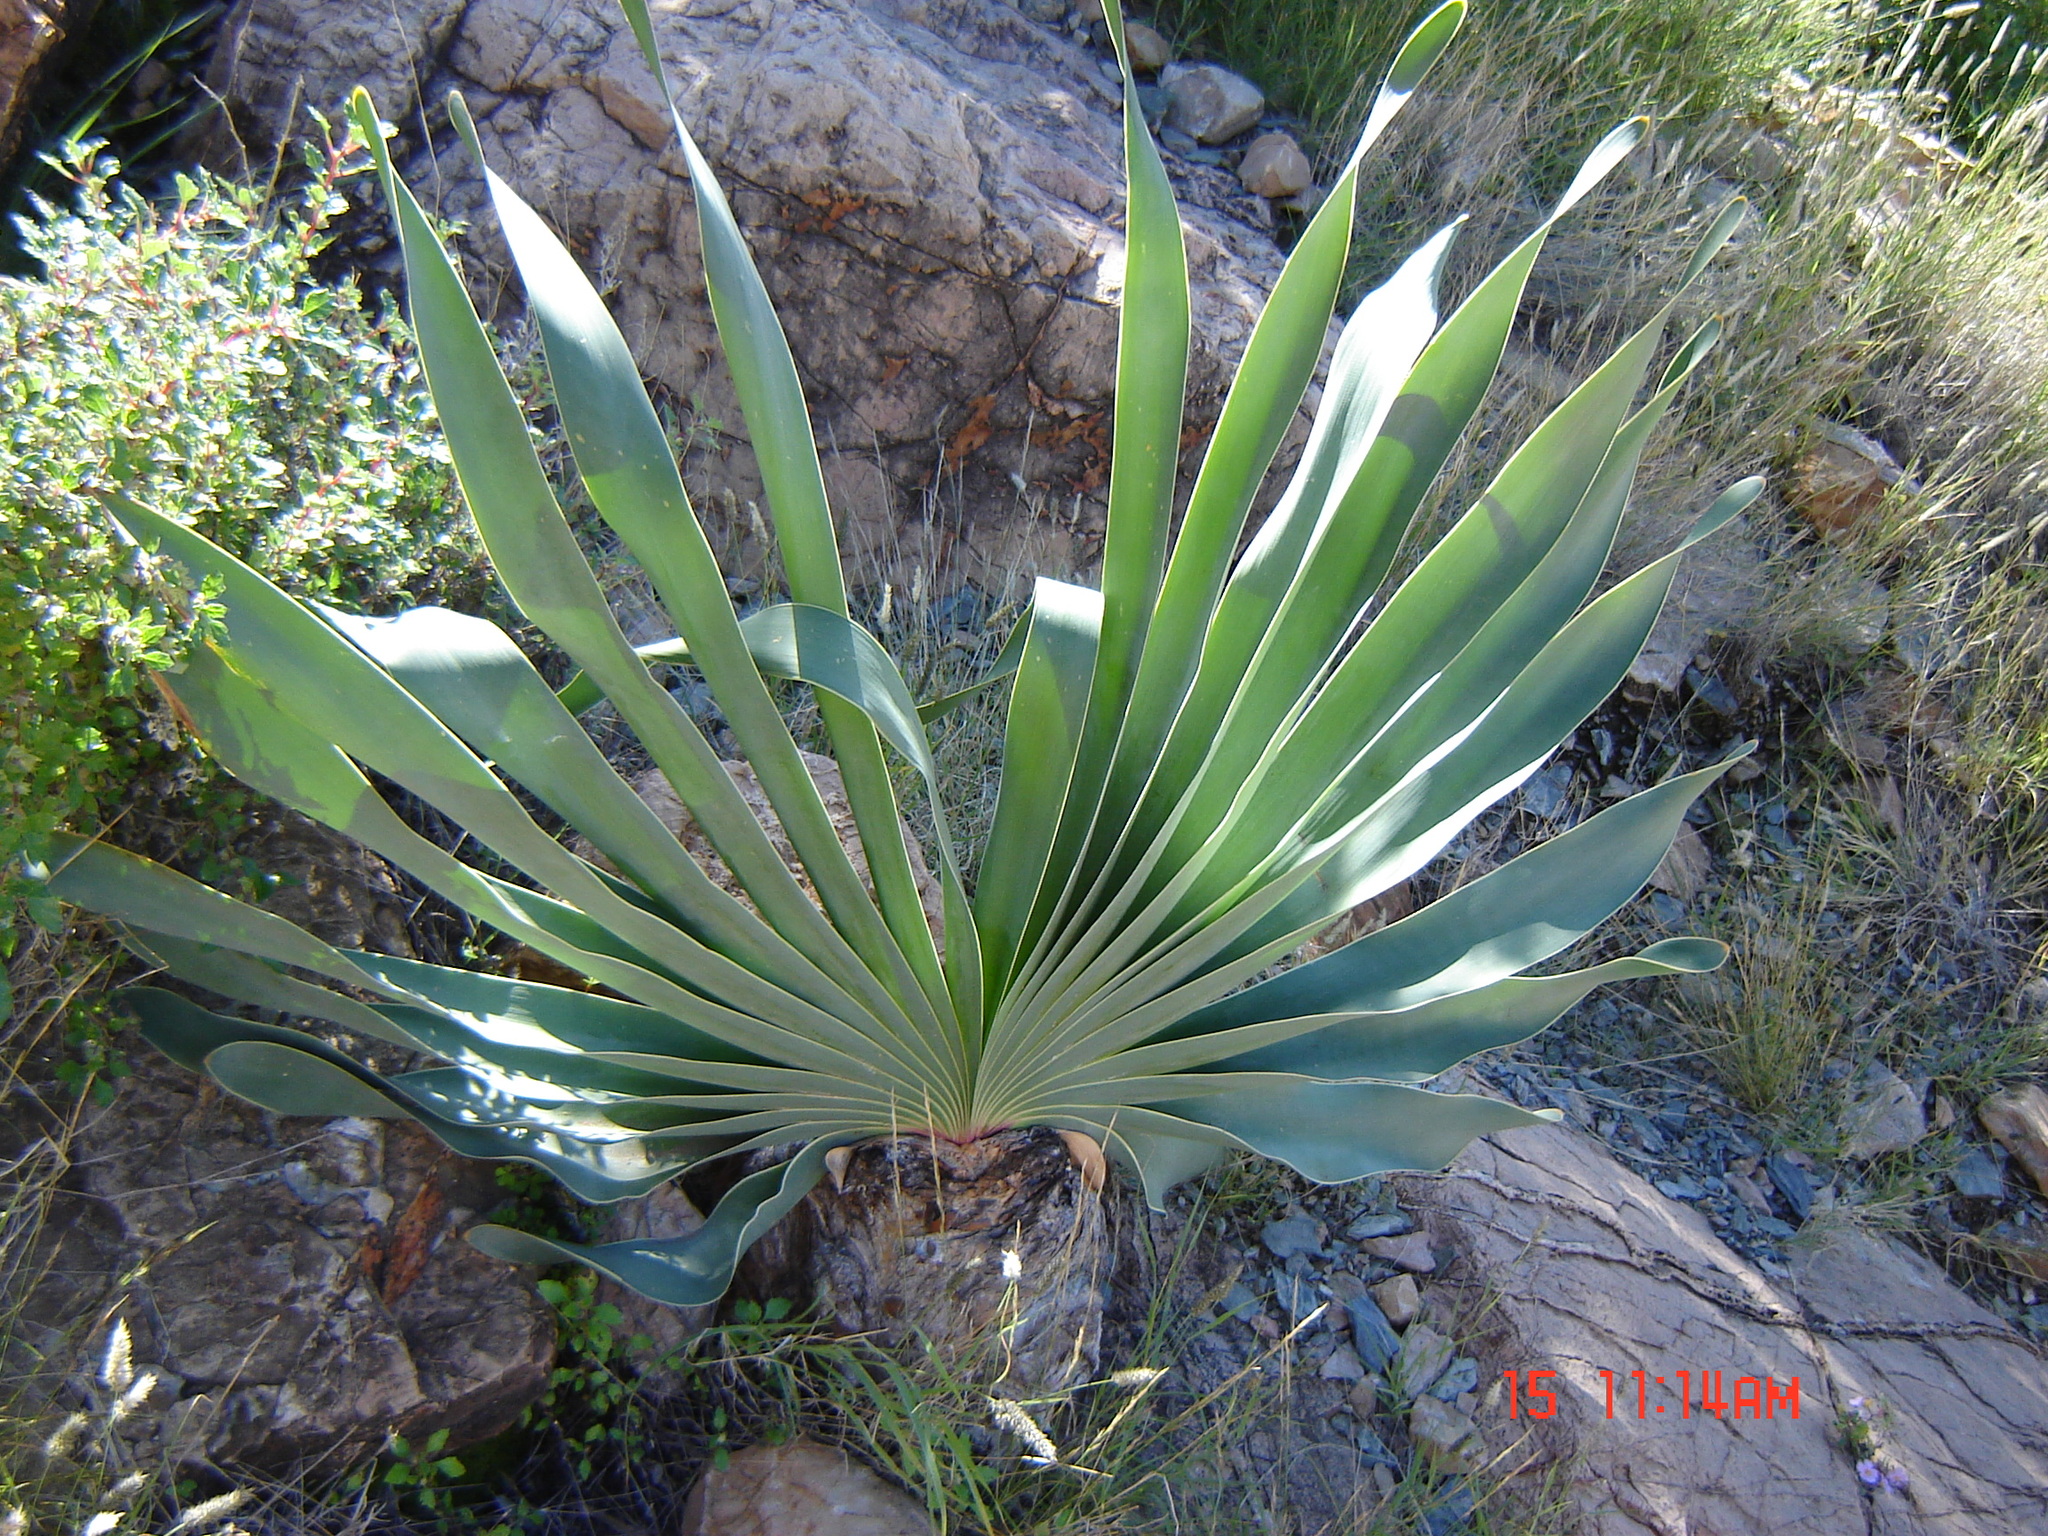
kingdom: Plantae
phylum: Tracheophyta
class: Liliopsida
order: Asparagales
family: Amaryllidaceae
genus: Boophone
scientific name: Boophone disticha
